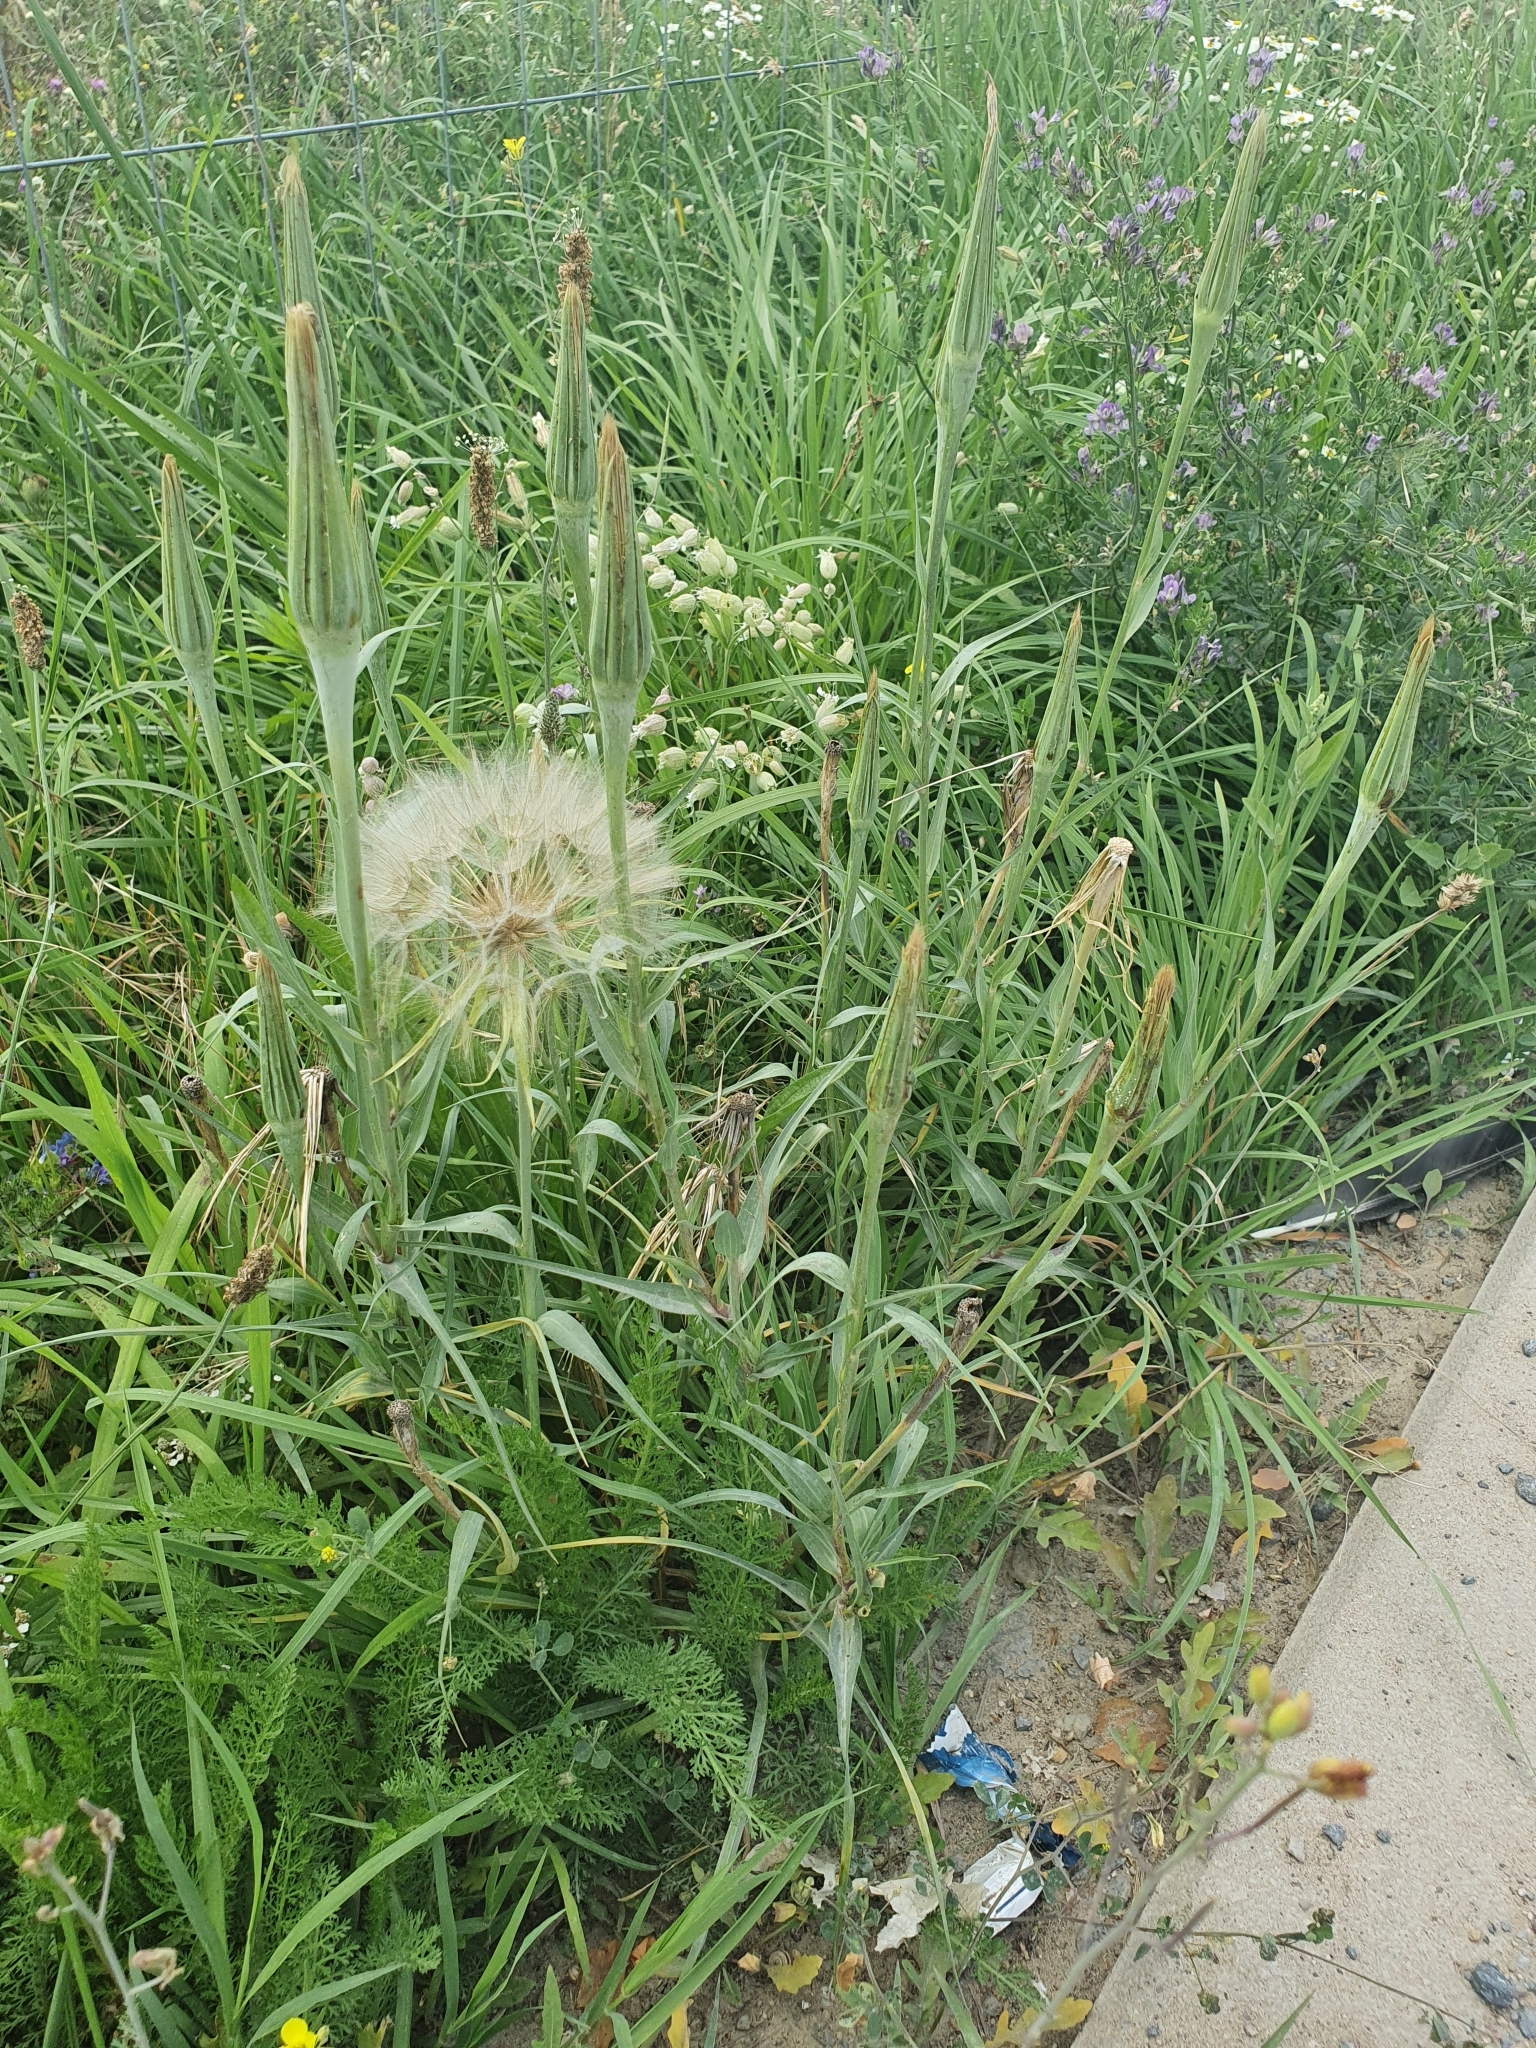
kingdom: Plantae
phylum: Tracheophyta
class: Magnoliopsida
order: Asterales
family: Asteraceae
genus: Tragopogon
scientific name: Tragopogon pratensis
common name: Goat's-beard
